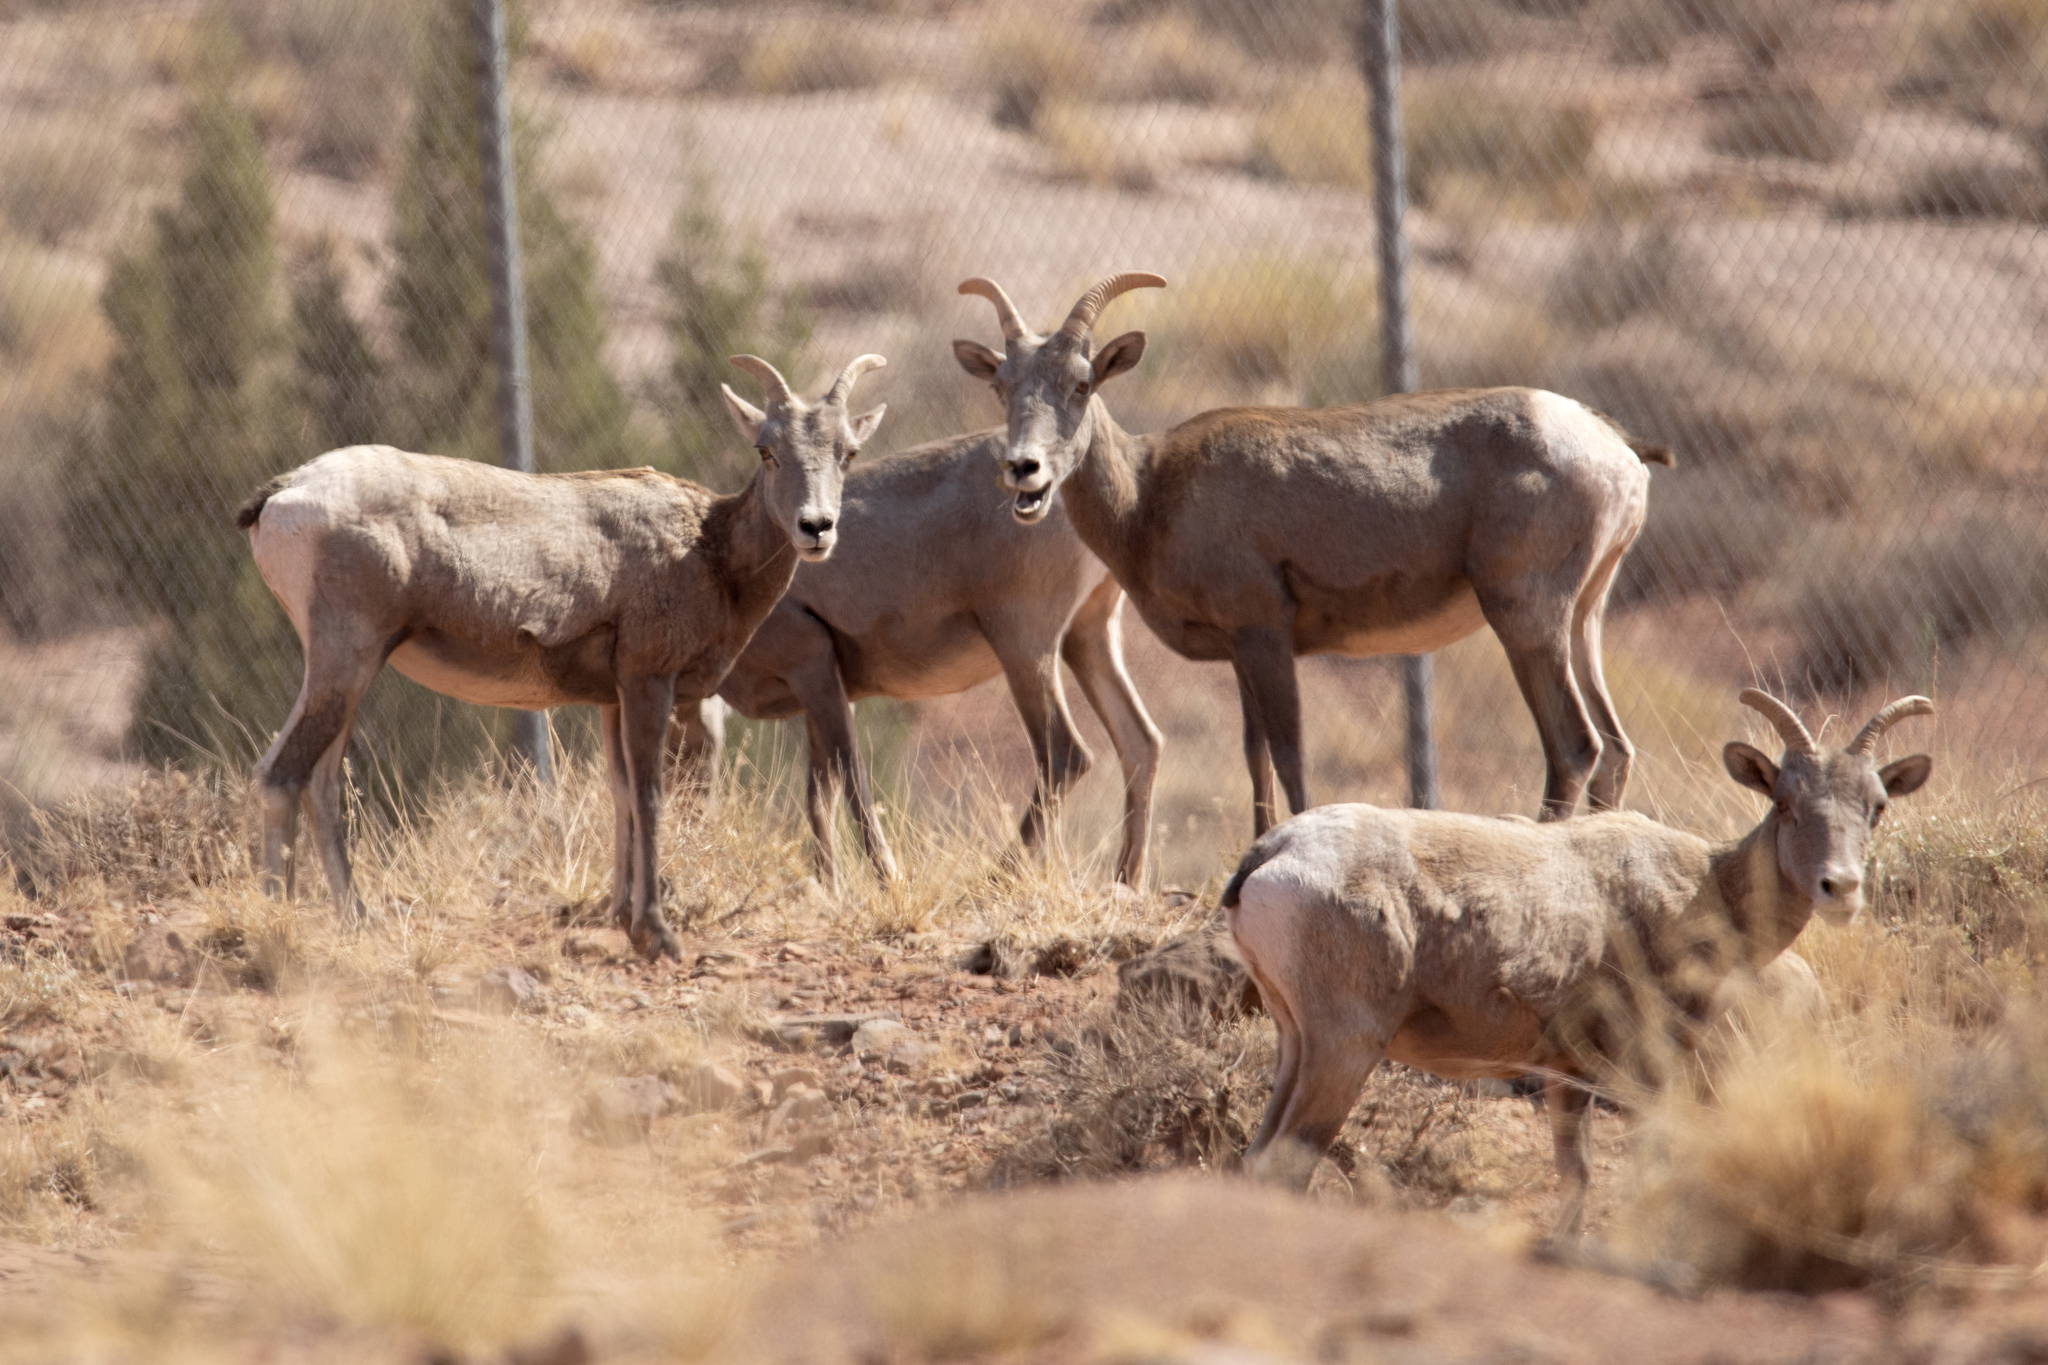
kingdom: Animalia
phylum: Chordata
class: Mammalia
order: Artiodactyla
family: Bovidae
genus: Ovis
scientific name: Ovis canadensis
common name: Bighorn sheep
